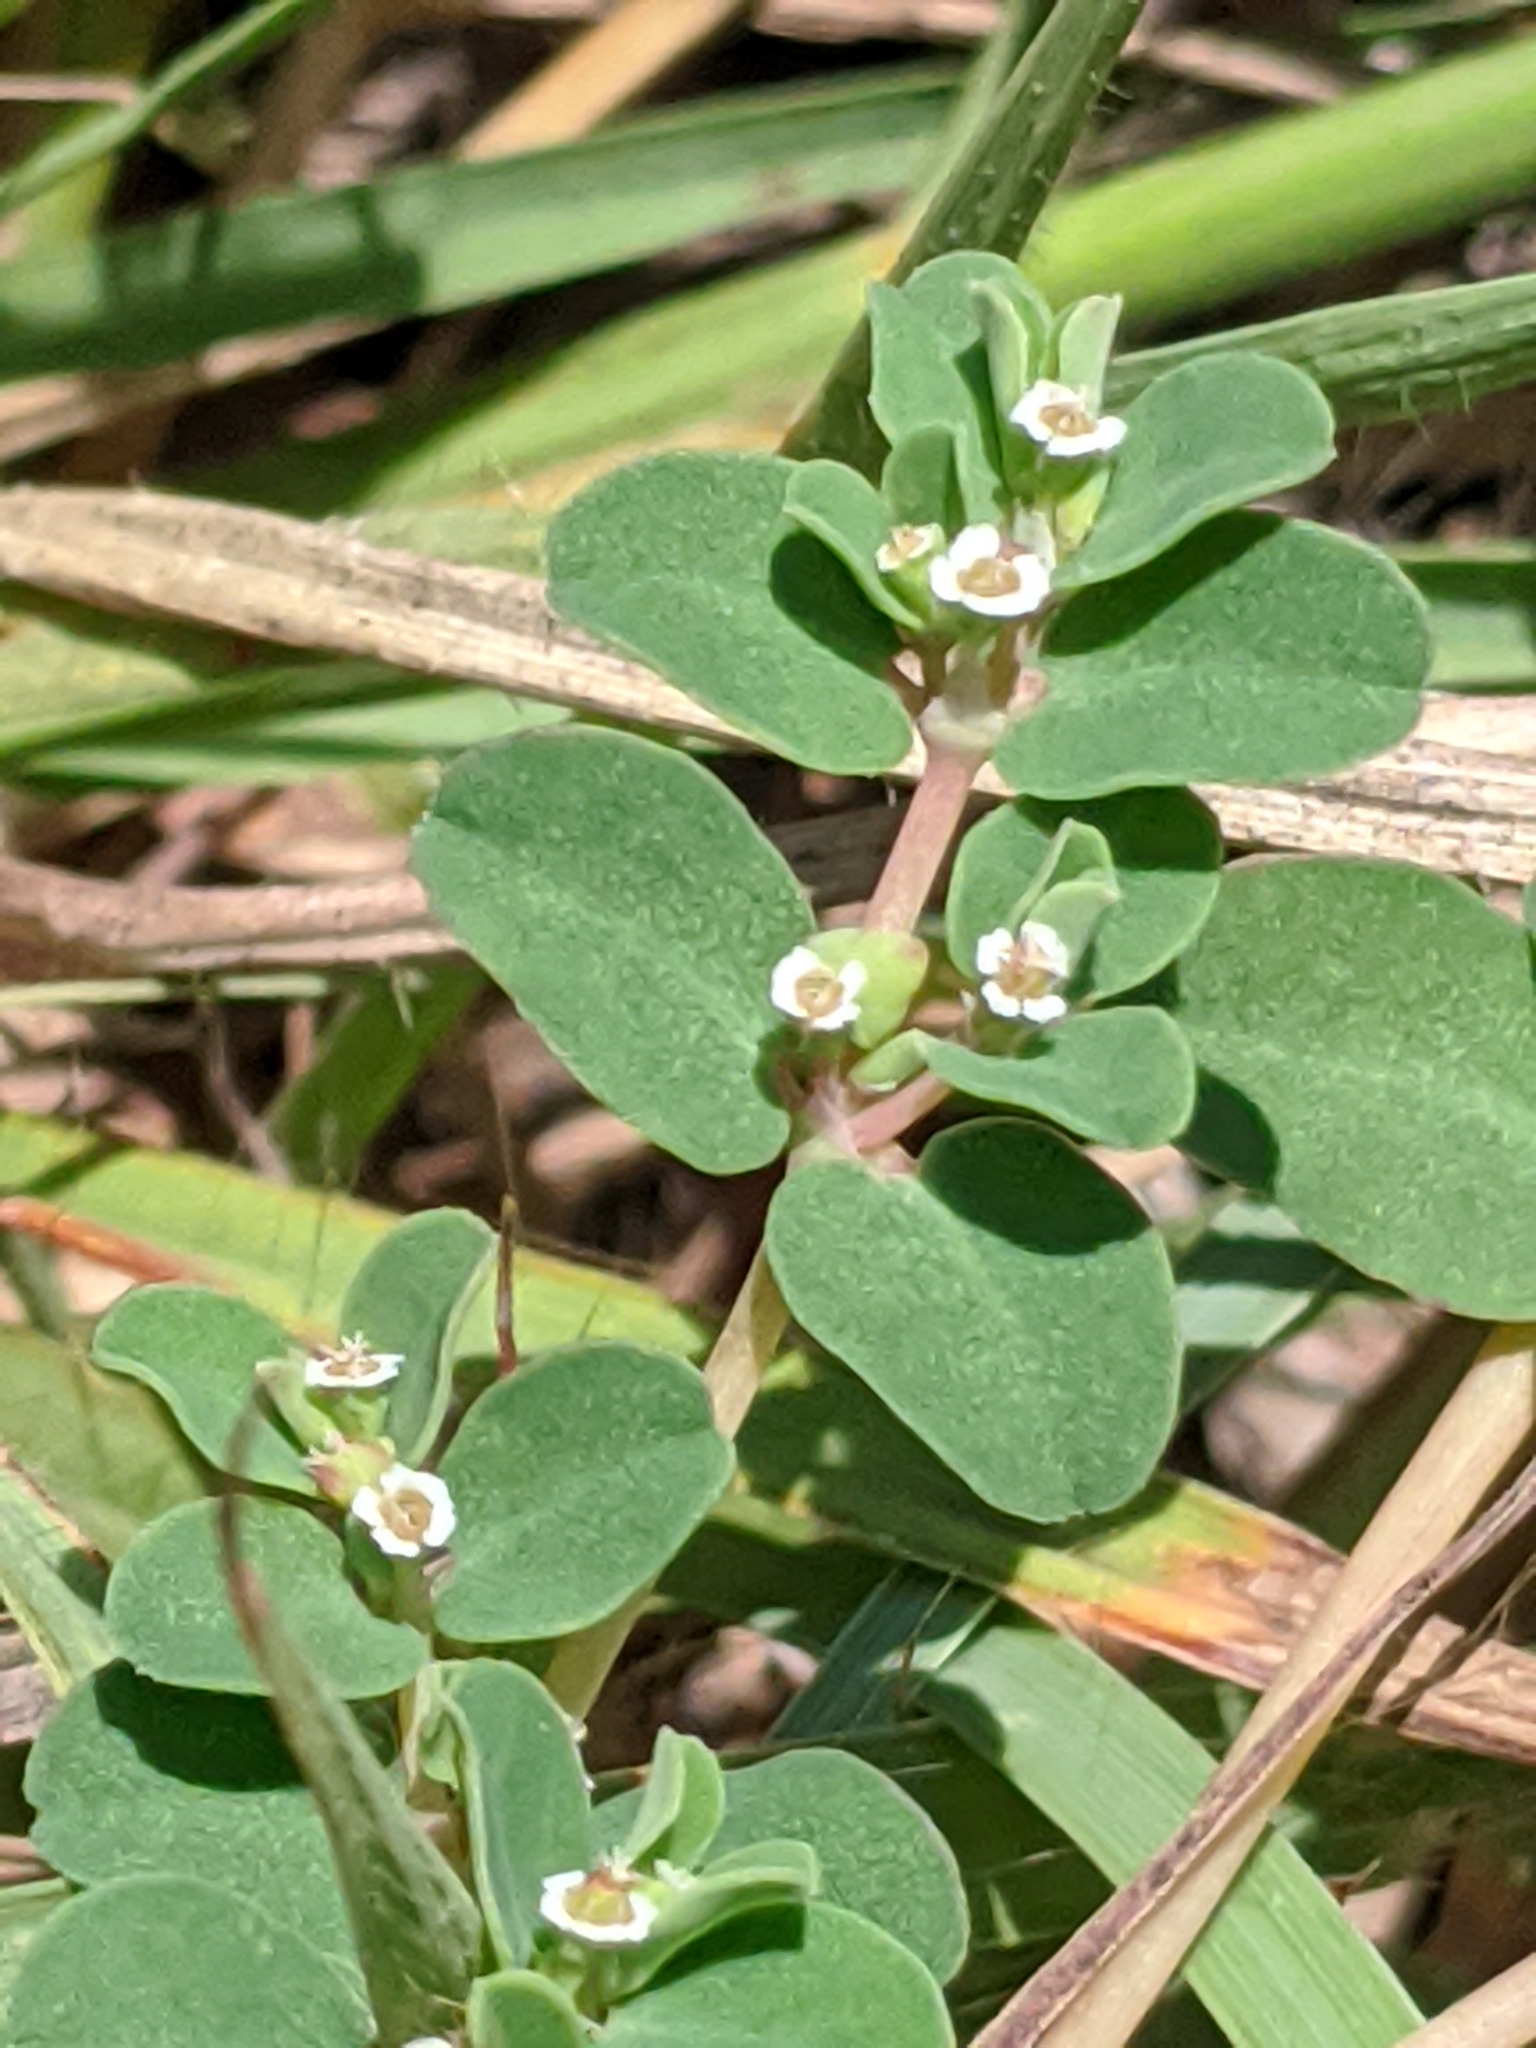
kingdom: Plantae
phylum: Tracheophyta
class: Magnoliopsida
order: Malpighiales
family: Euphorbiaceae
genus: Euphorbia
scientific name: Euphorbia serpens
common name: Matted sandmat
